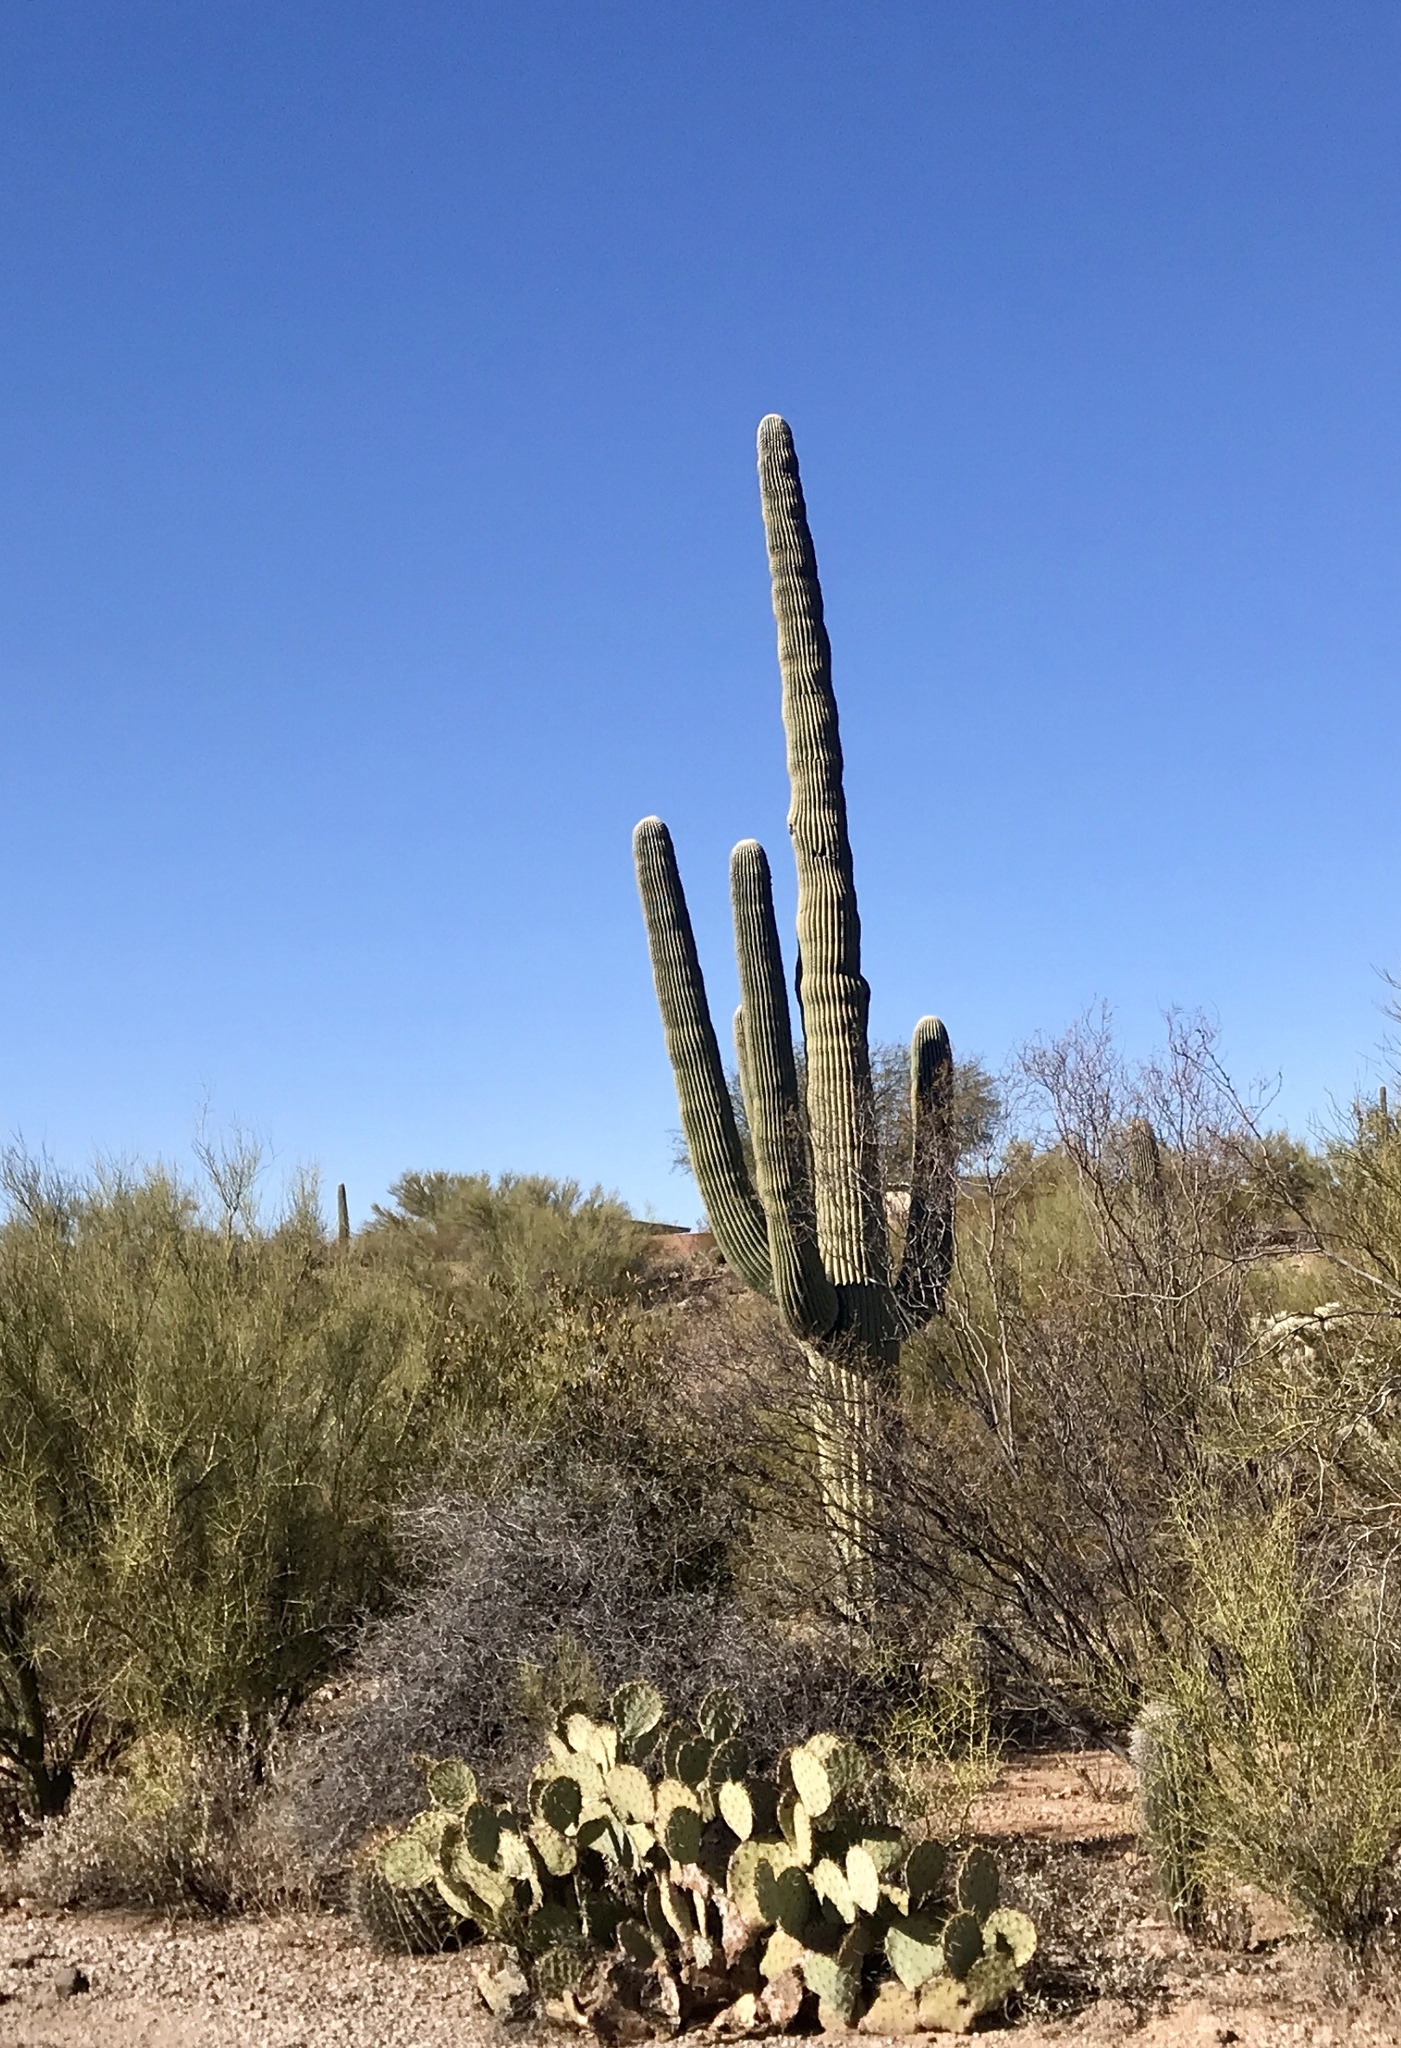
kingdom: Plantae
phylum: Tracheophyta
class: Magnoliopsida
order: Caryophyllales
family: Cactaceae
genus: Carnegiea
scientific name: Carnegiea gigantea
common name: Saguaro
